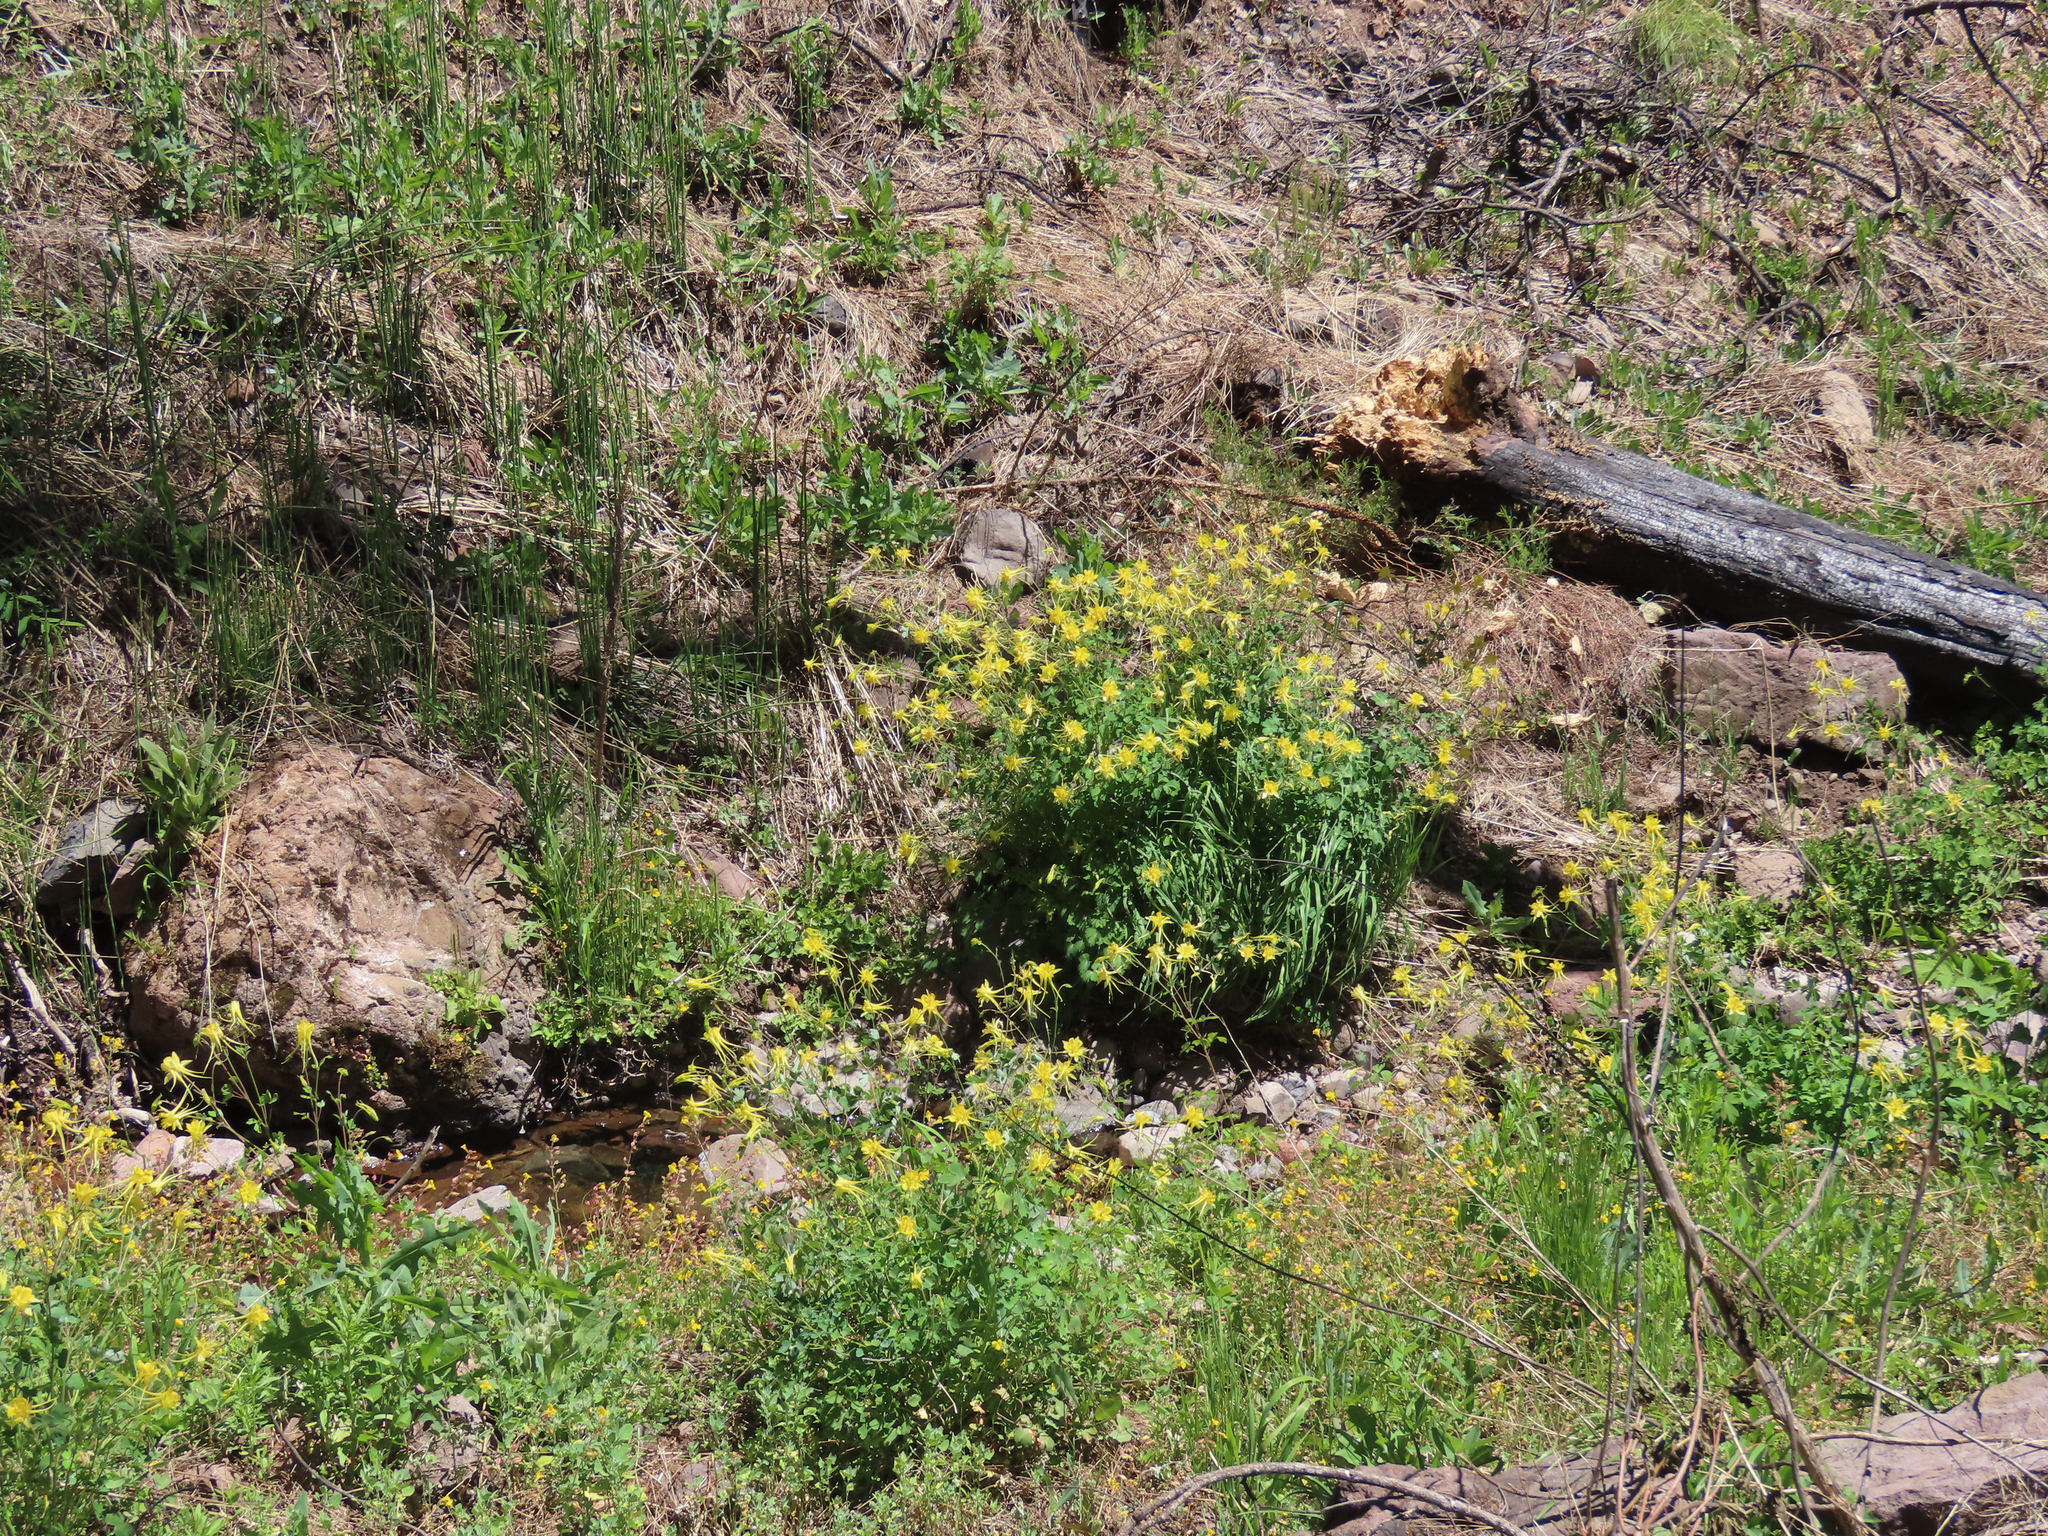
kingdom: Plantae
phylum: Tracheophyta
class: Magnoliopsida
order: Ranunculales
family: Ranunculaceae
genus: Aquilegia
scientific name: Aquilegia chrysantha
